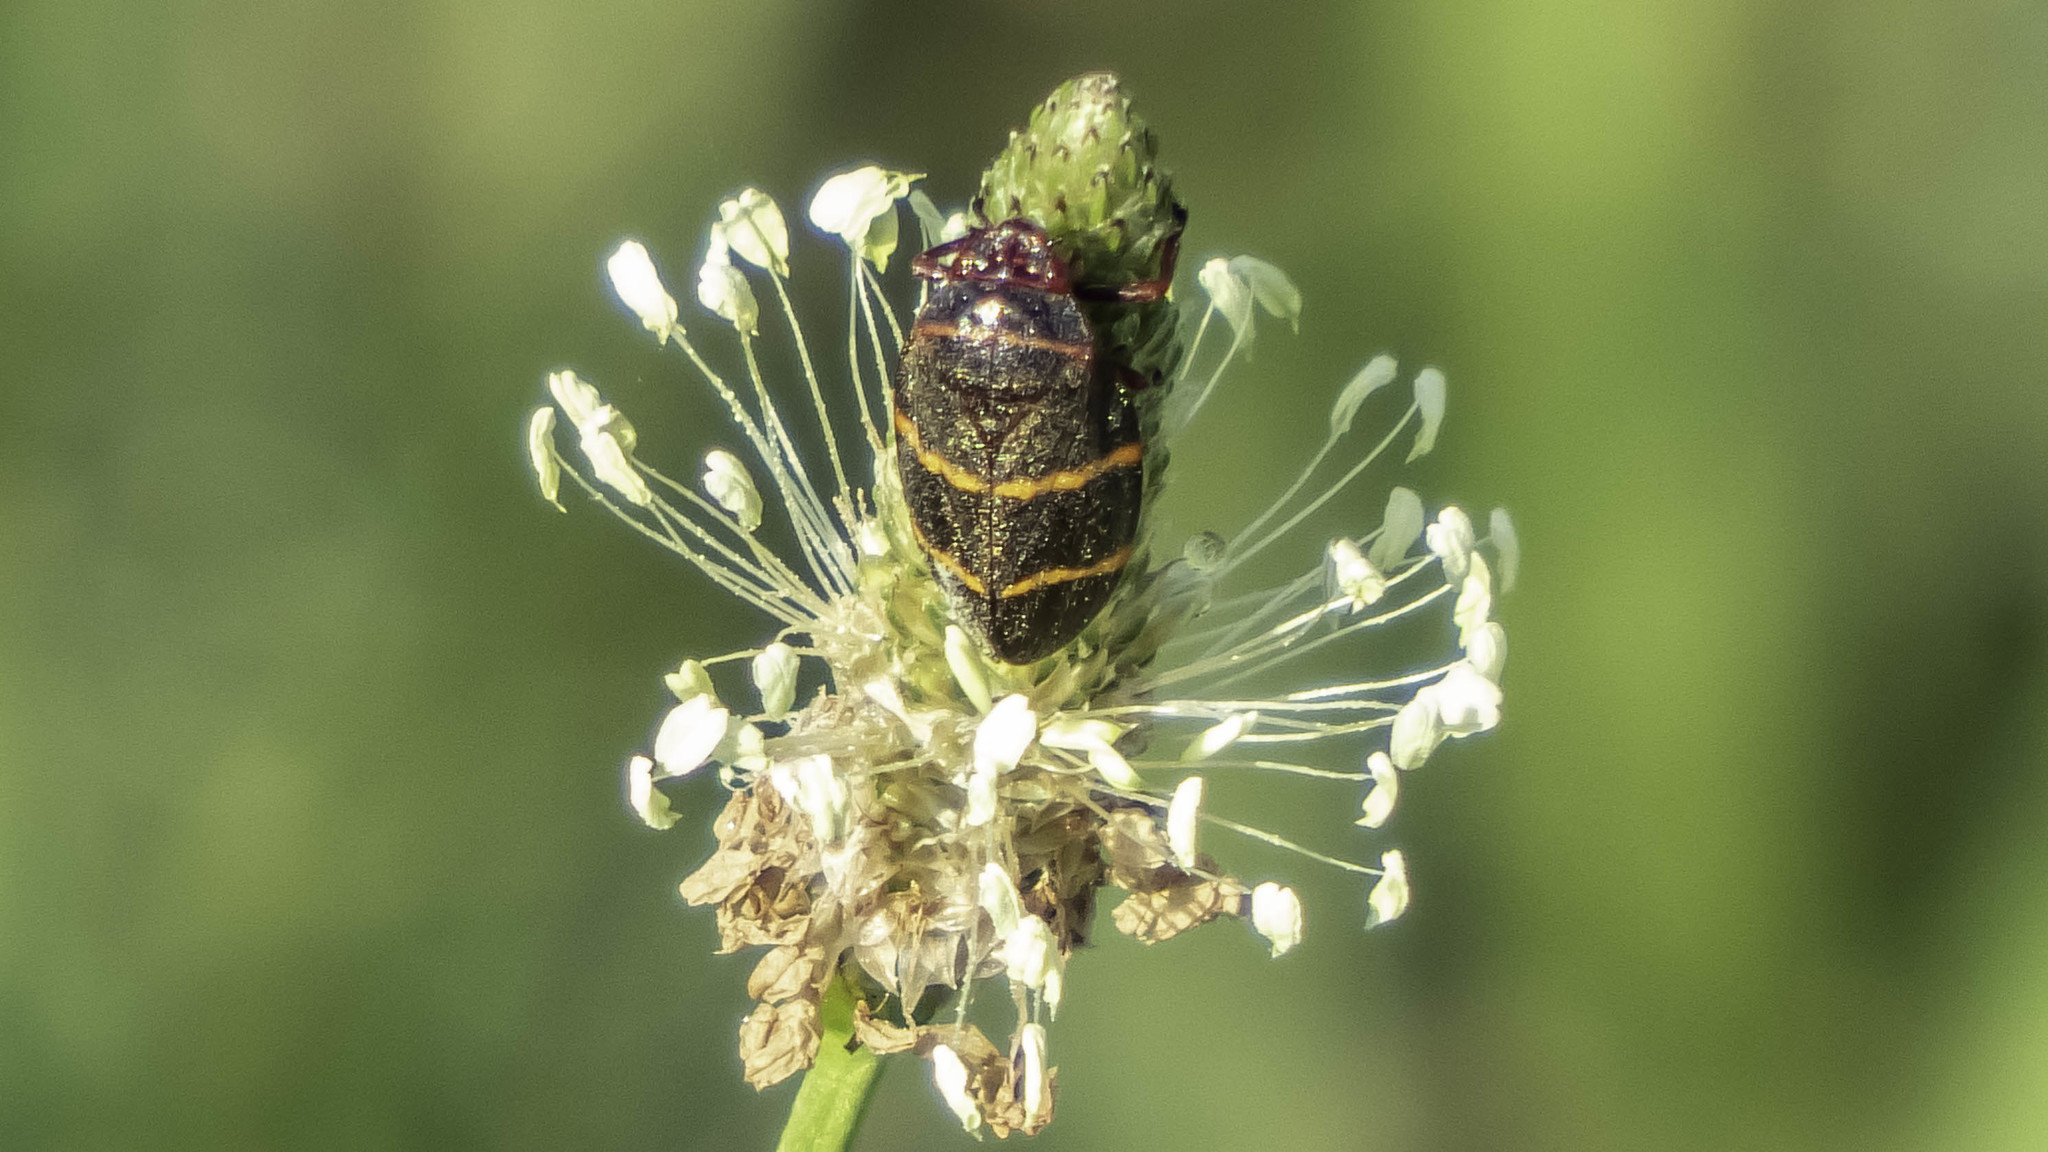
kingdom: Animalia
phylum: Arthropoda
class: Insecta
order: Hemiptera
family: Cercopidae
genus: Prosapia
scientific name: Prosapia bicincta
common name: Twolined spittlebug
